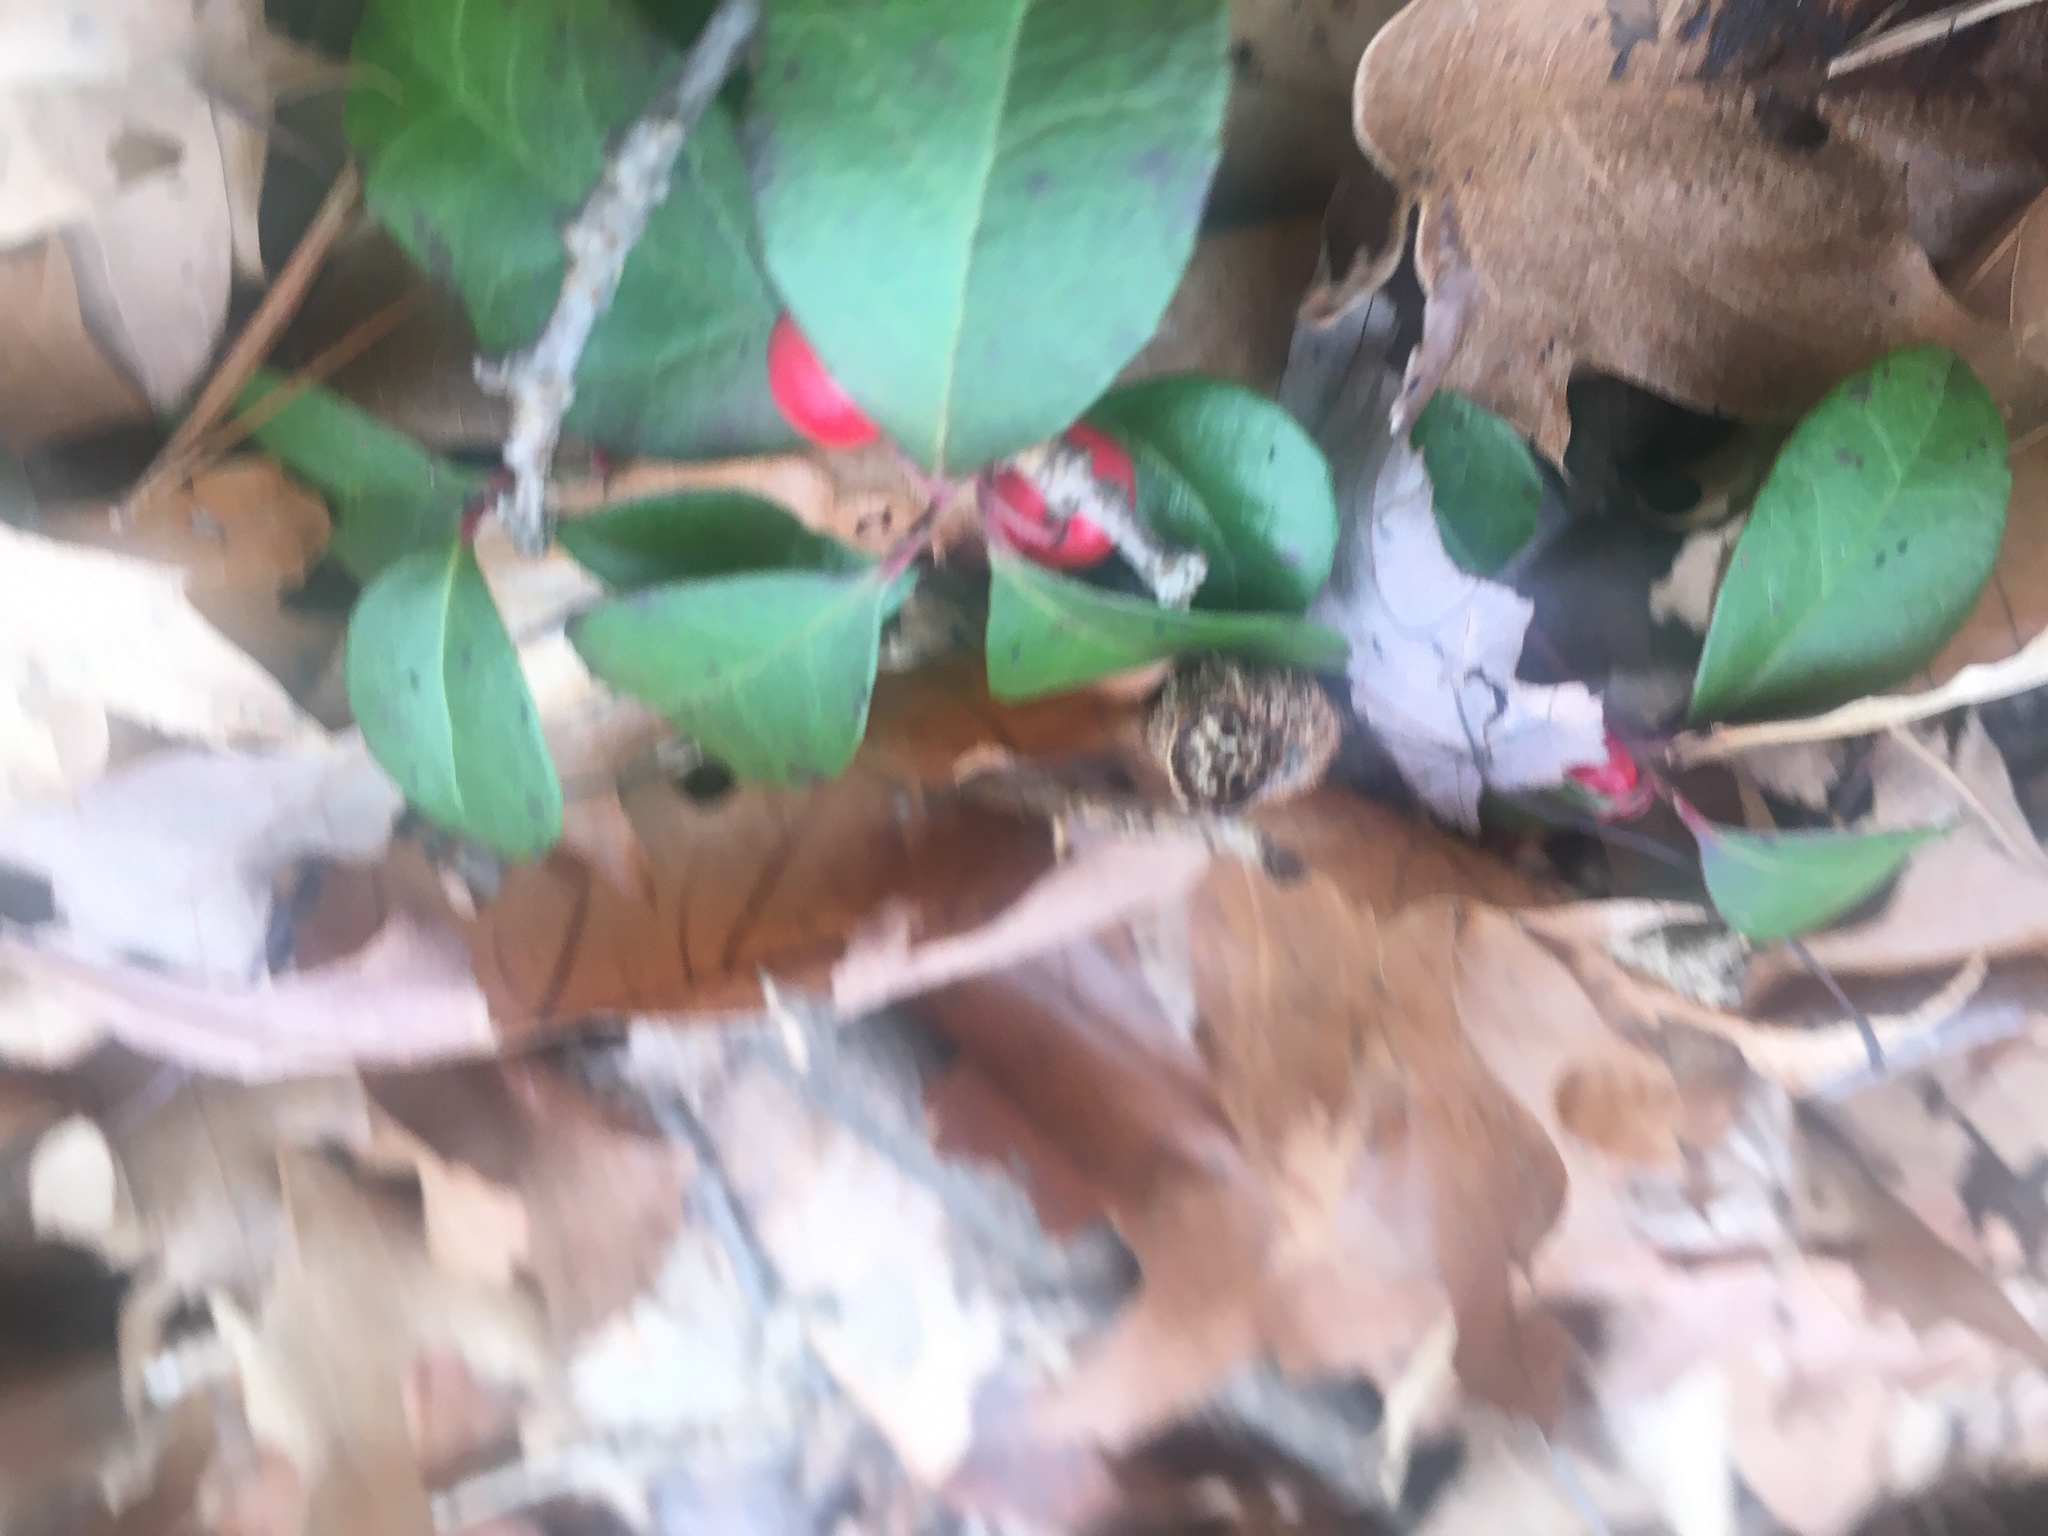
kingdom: Plantae
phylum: Tracheophyta
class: Magnoliopsida
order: Ericales
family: Ericaceae
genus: Gaultheria
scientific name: Gaultheria procumbens
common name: Checkerberry
